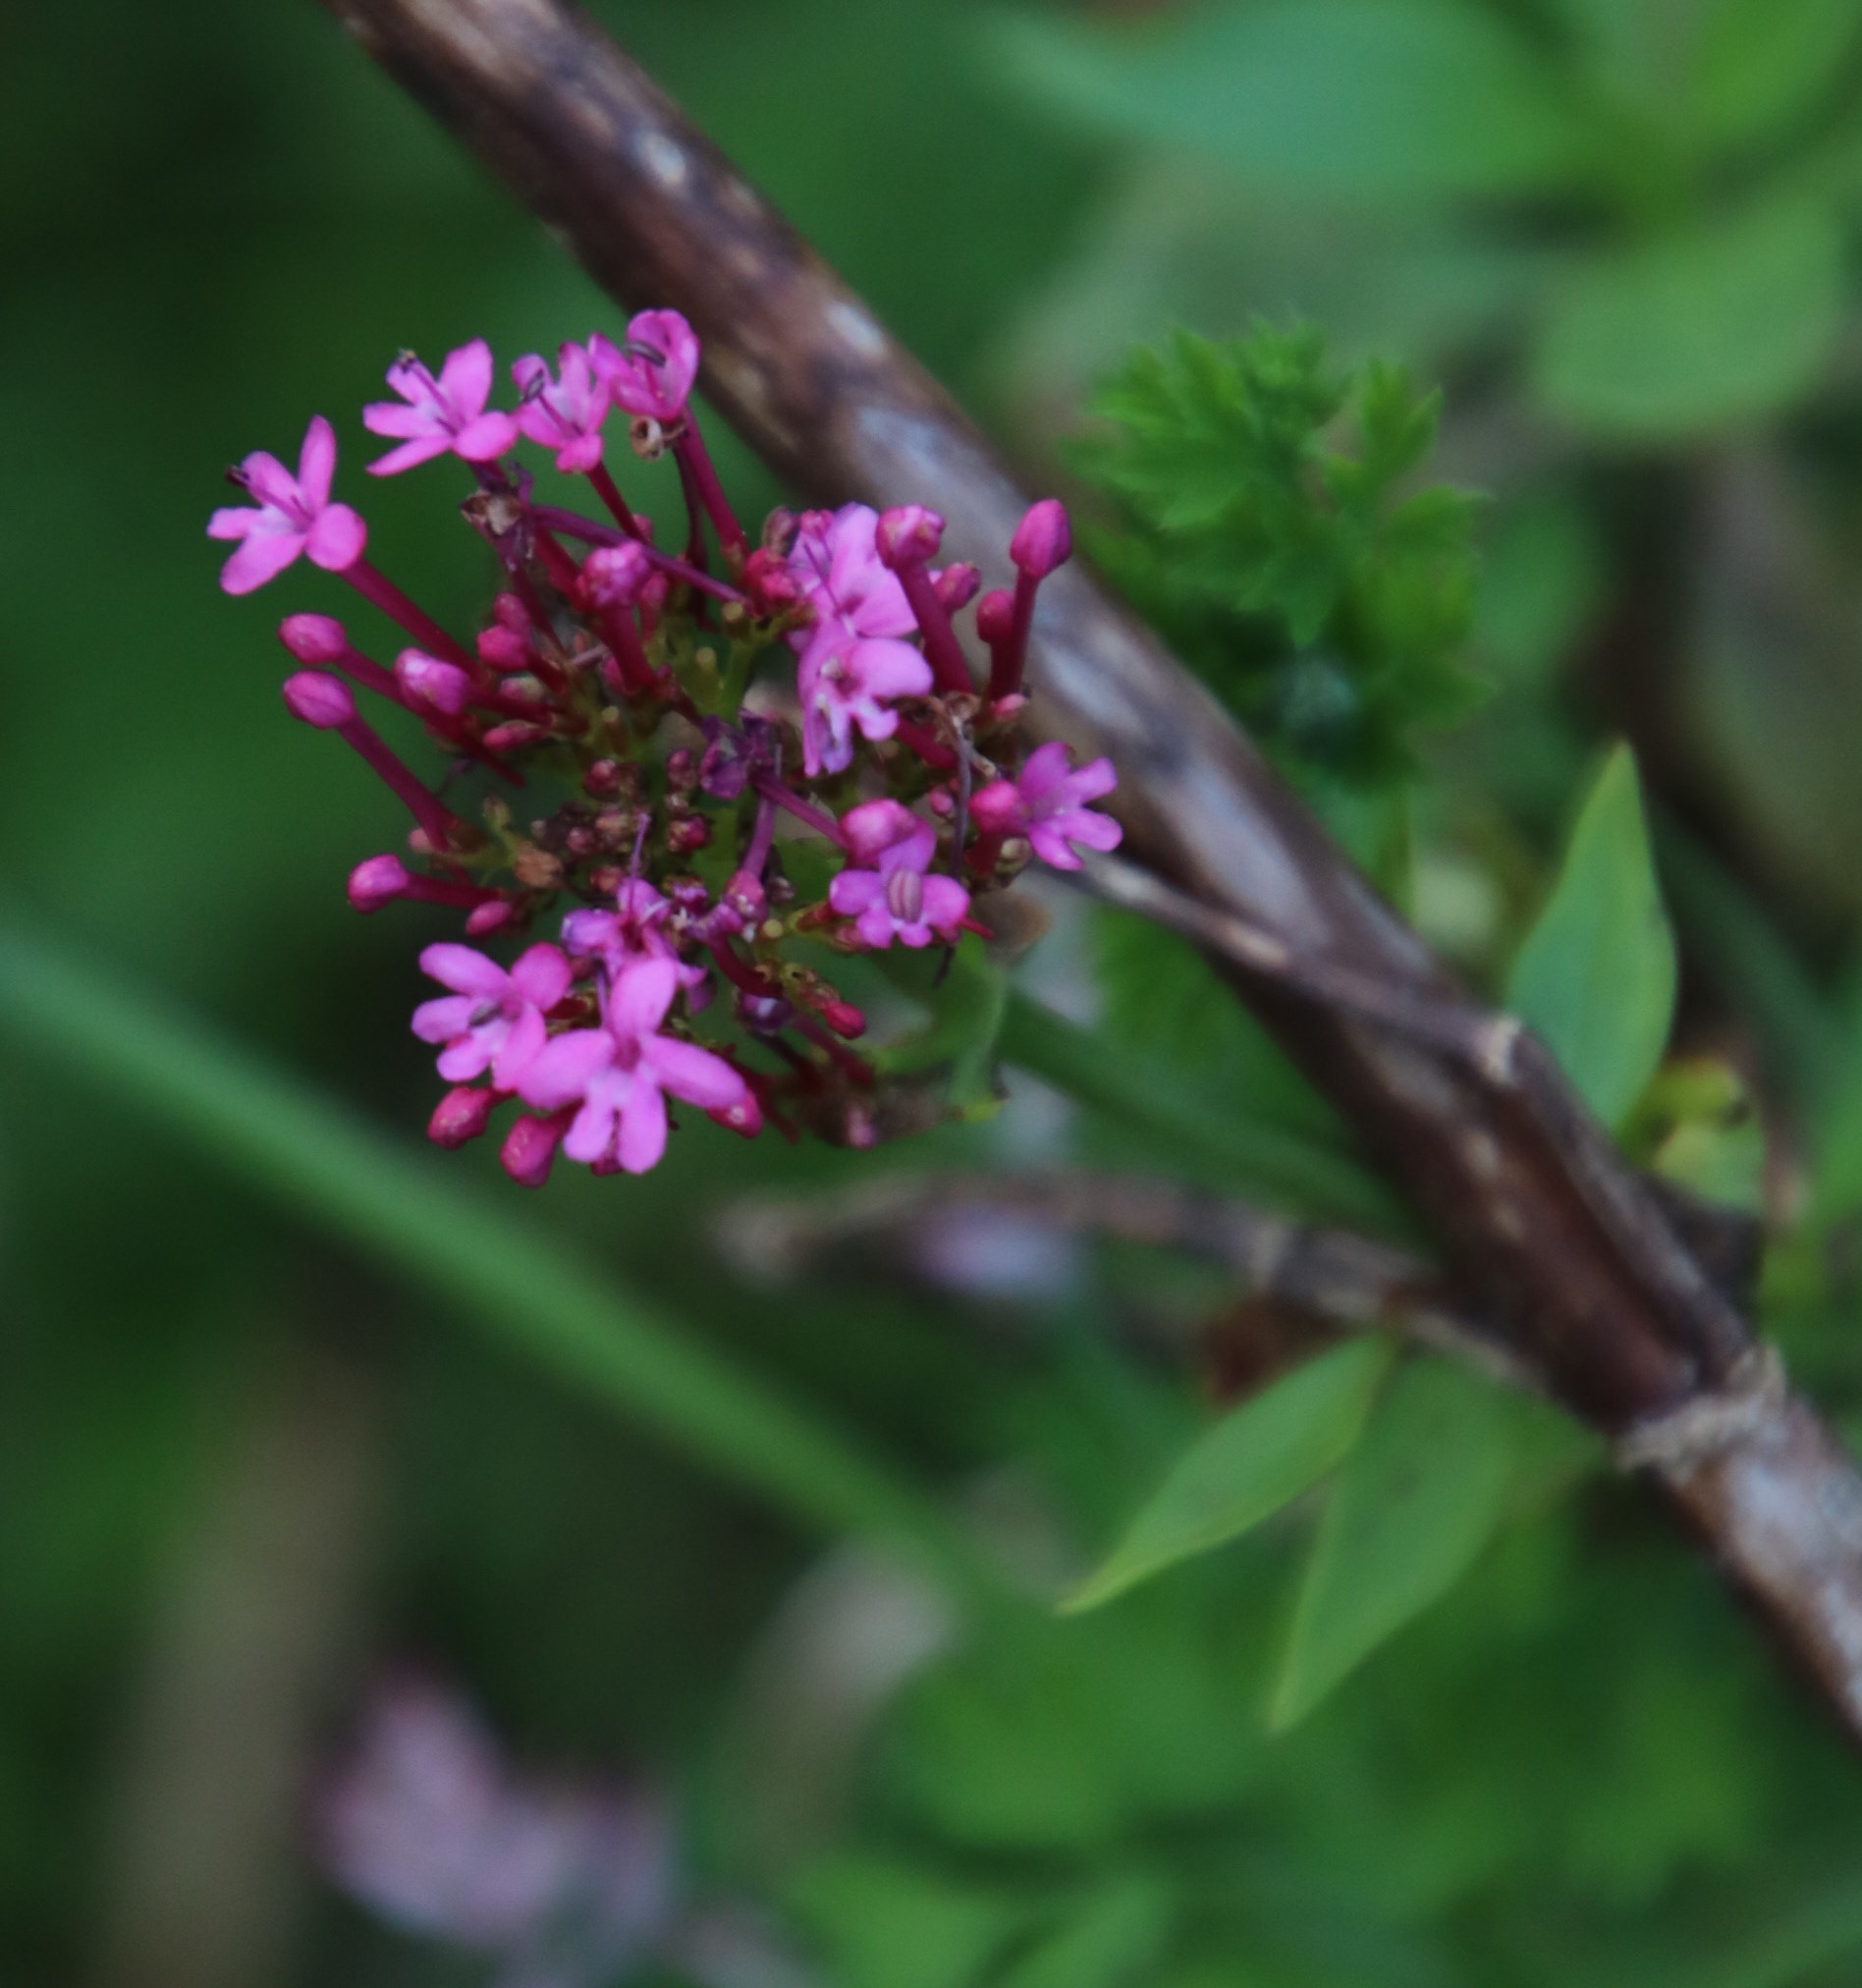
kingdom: Plantae
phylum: Tracheophyta
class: Magnoliopsida
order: Dipsacales
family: Caprifoliaceae
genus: Centranthus
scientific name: Centranthus ruber
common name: Red valerian
